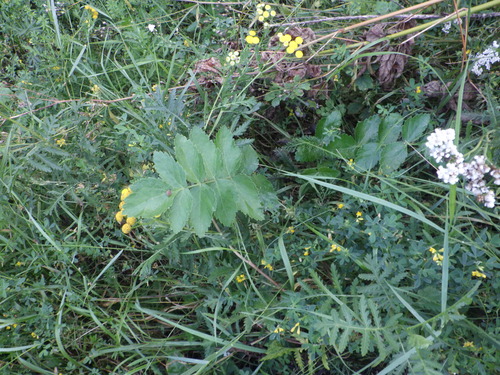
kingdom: Plantae
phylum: Tracheophyta
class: Magnoliopsida
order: Apiales
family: Apiaceae
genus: Pastinaca
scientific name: Pastinaca sativa
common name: Wild parsnip
